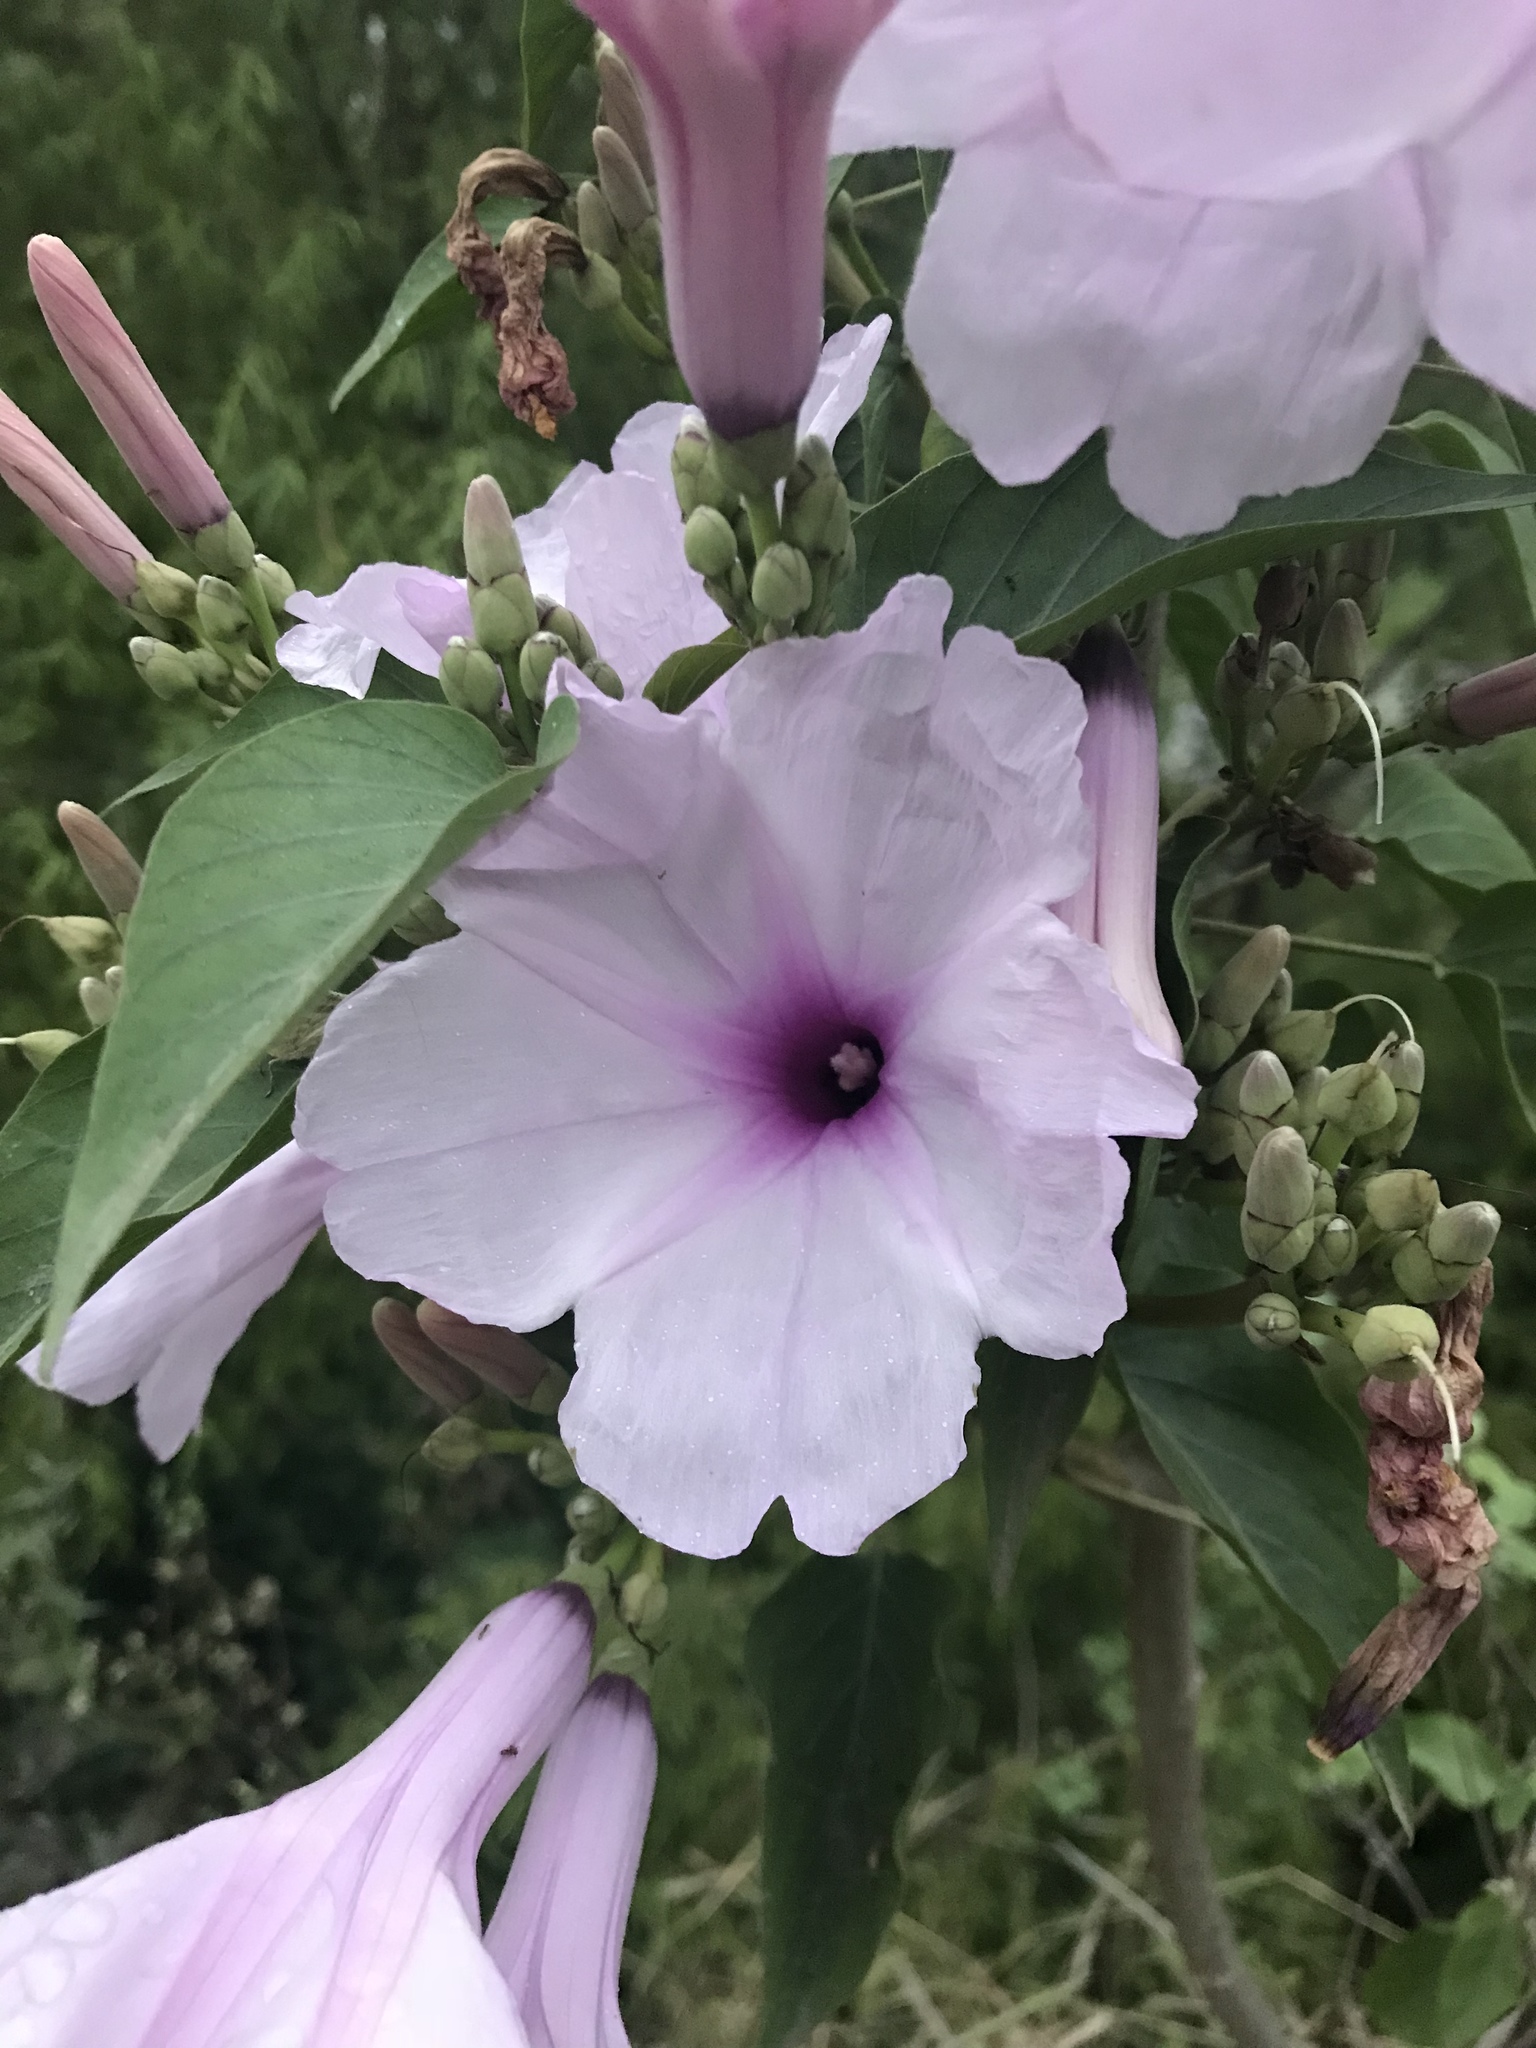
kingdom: Plantae
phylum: Tracheophyta
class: Magnoliopsida
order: Solanales
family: Convolvulaceae
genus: Ipomoea
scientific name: Ipomoea carnea
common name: Morning-glory
